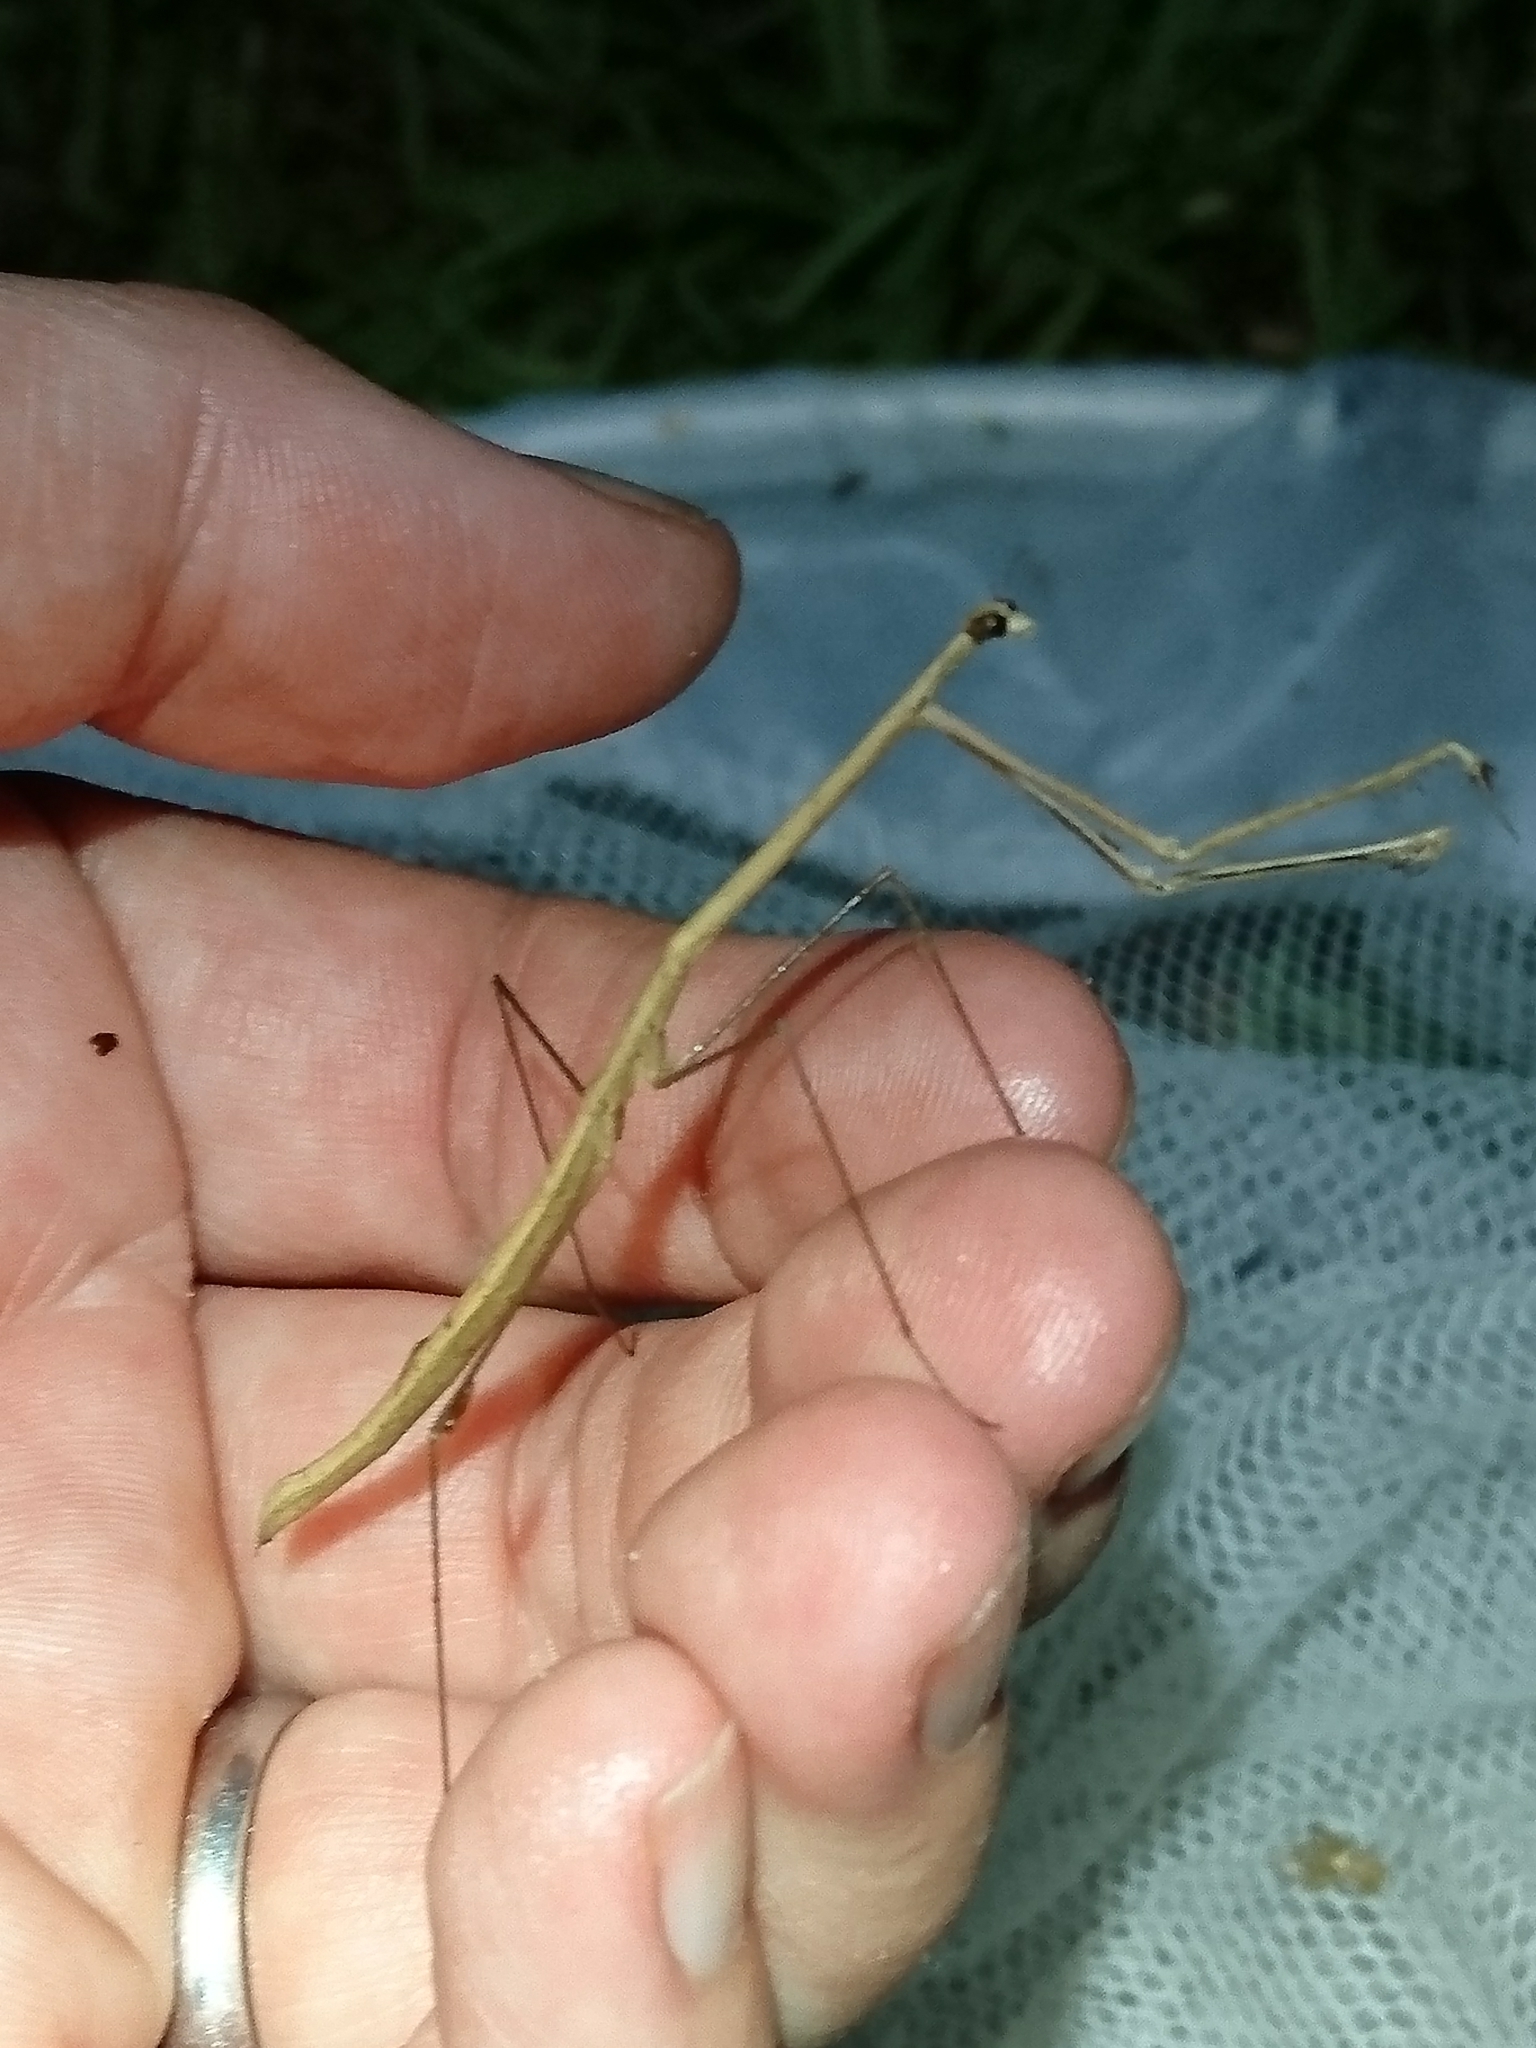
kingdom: Animalia
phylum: Arthropoda
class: Insecta
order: Mantodea
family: Thespidae
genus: Thesprotia
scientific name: Thesprotia graminis
